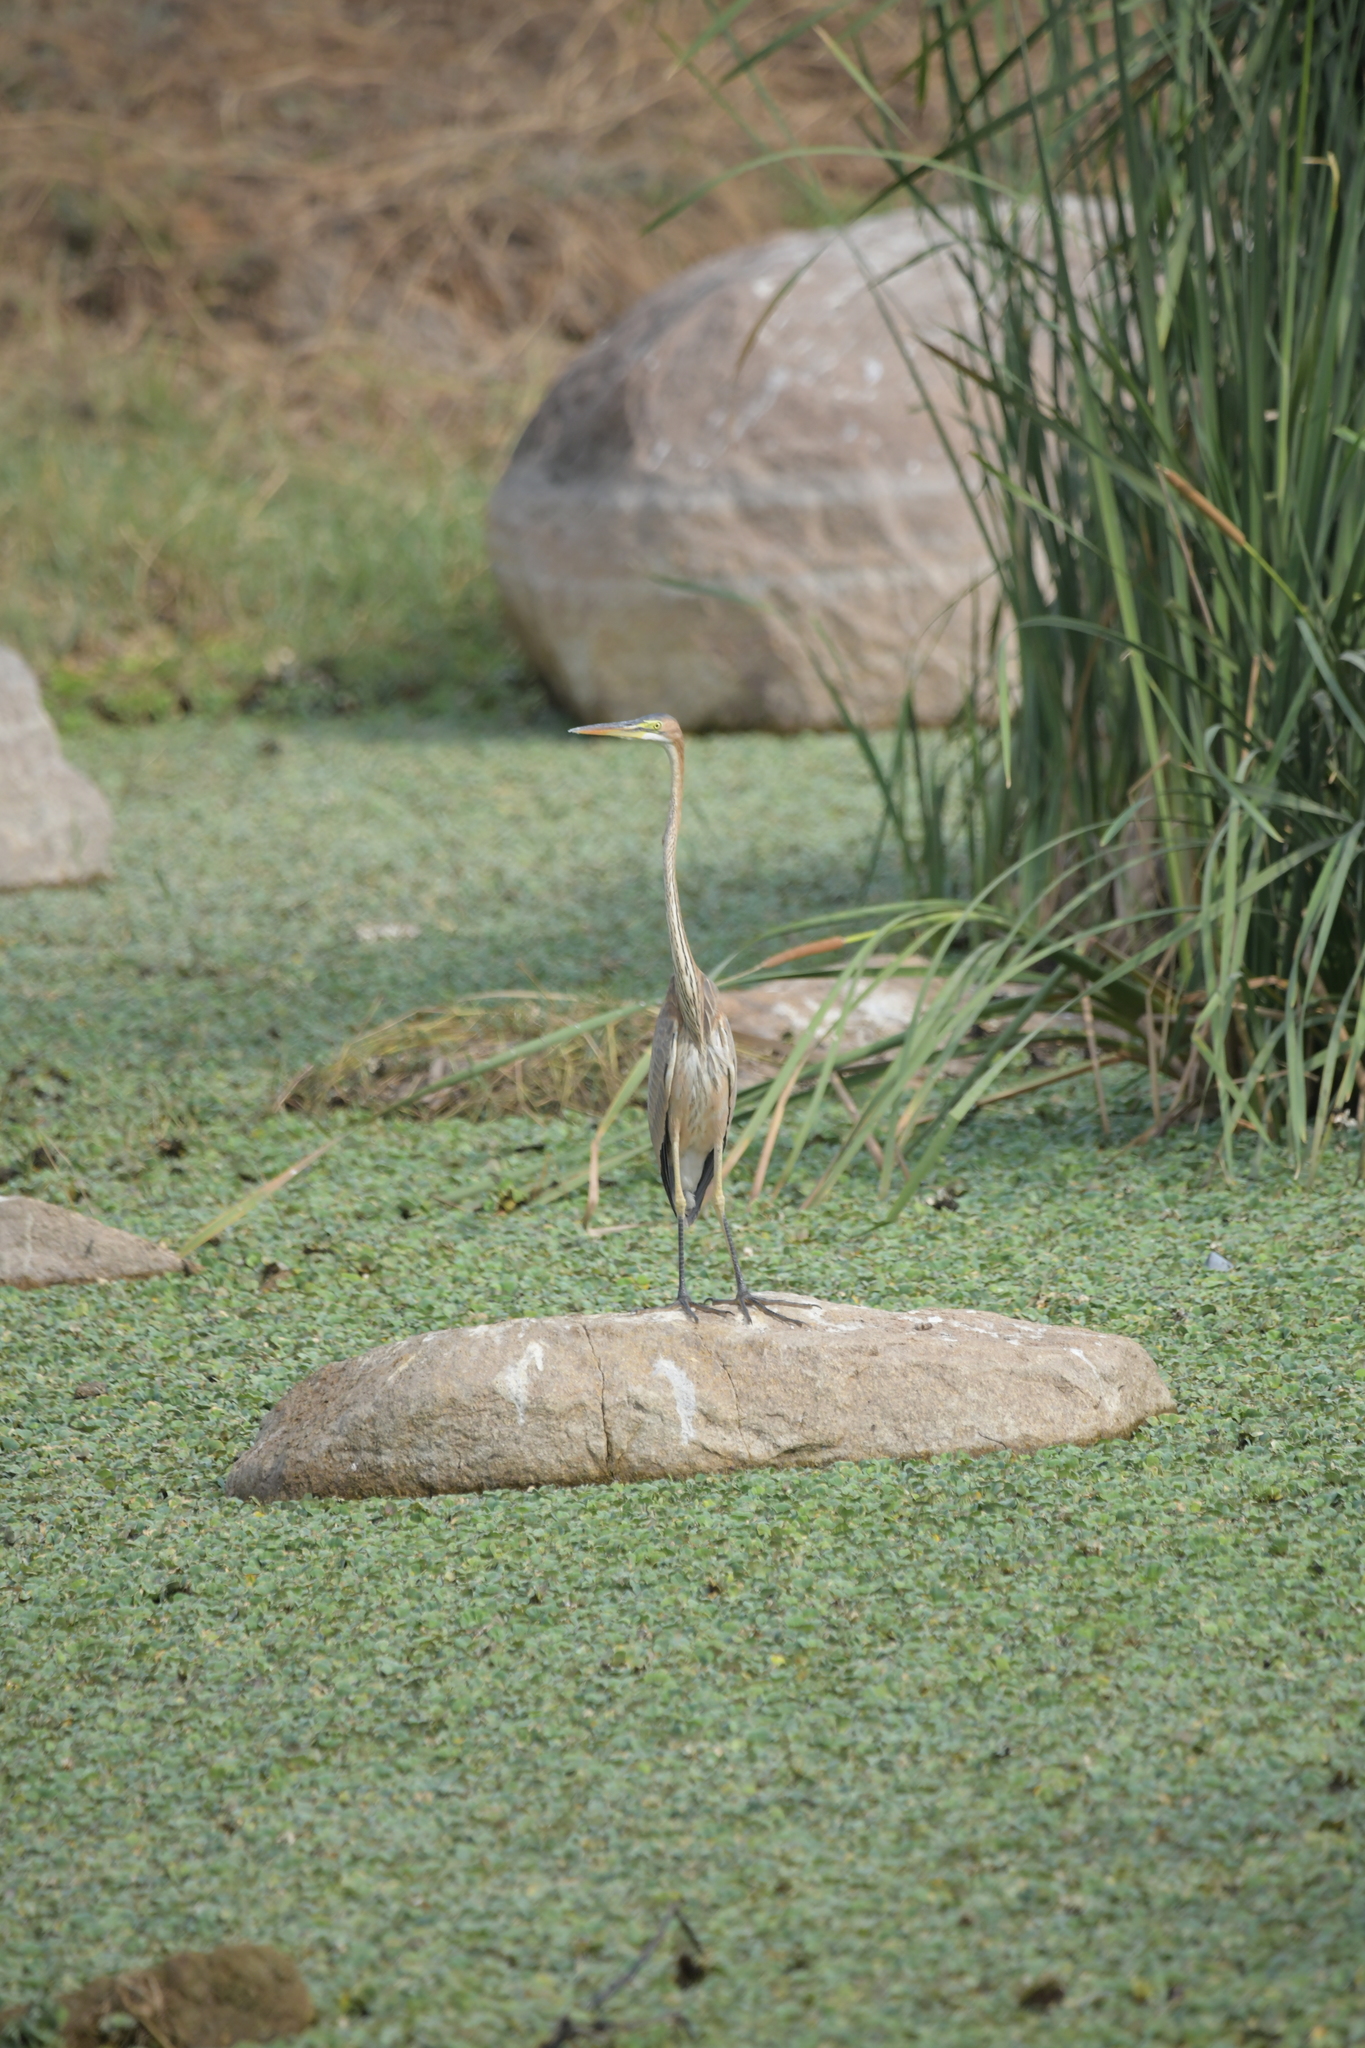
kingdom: Animalia
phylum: Chordata
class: Aves
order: Pelecaniformes
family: Ardeidae
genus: Ardea
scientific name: Ardea purpurea
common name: Purple heron
